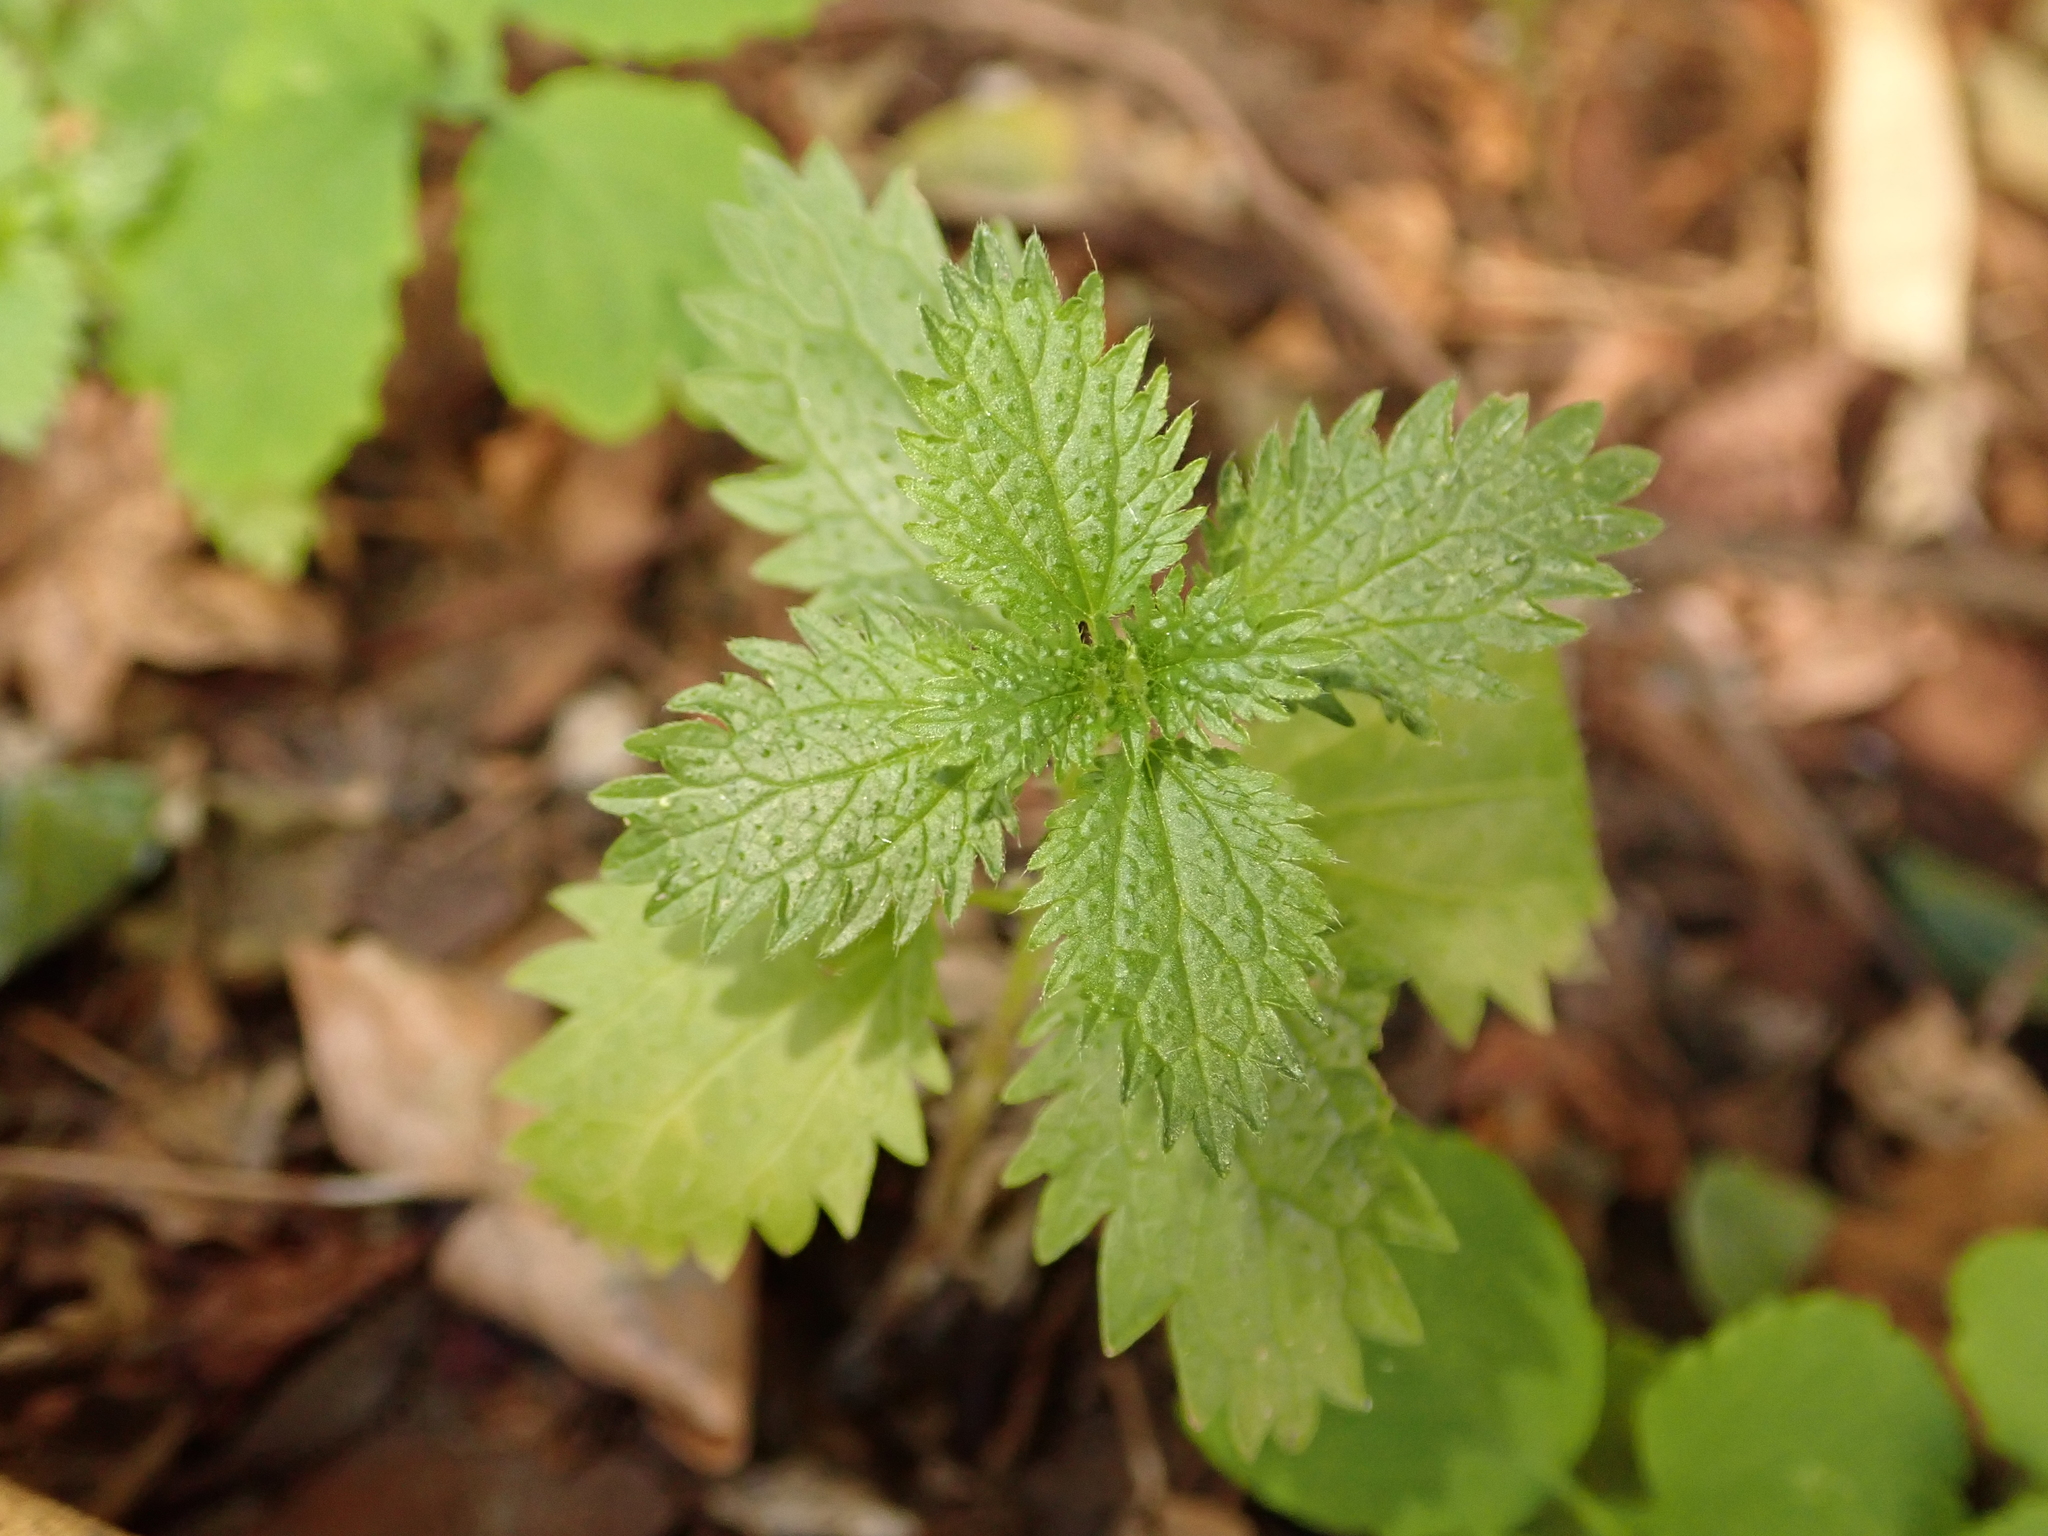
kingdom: Plantae
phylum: Tracheophyta
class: Magnoliopsida
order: Rosales
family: Urticaceae
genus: Urtica
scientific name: Urtica urens
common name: Dwarf nettle
